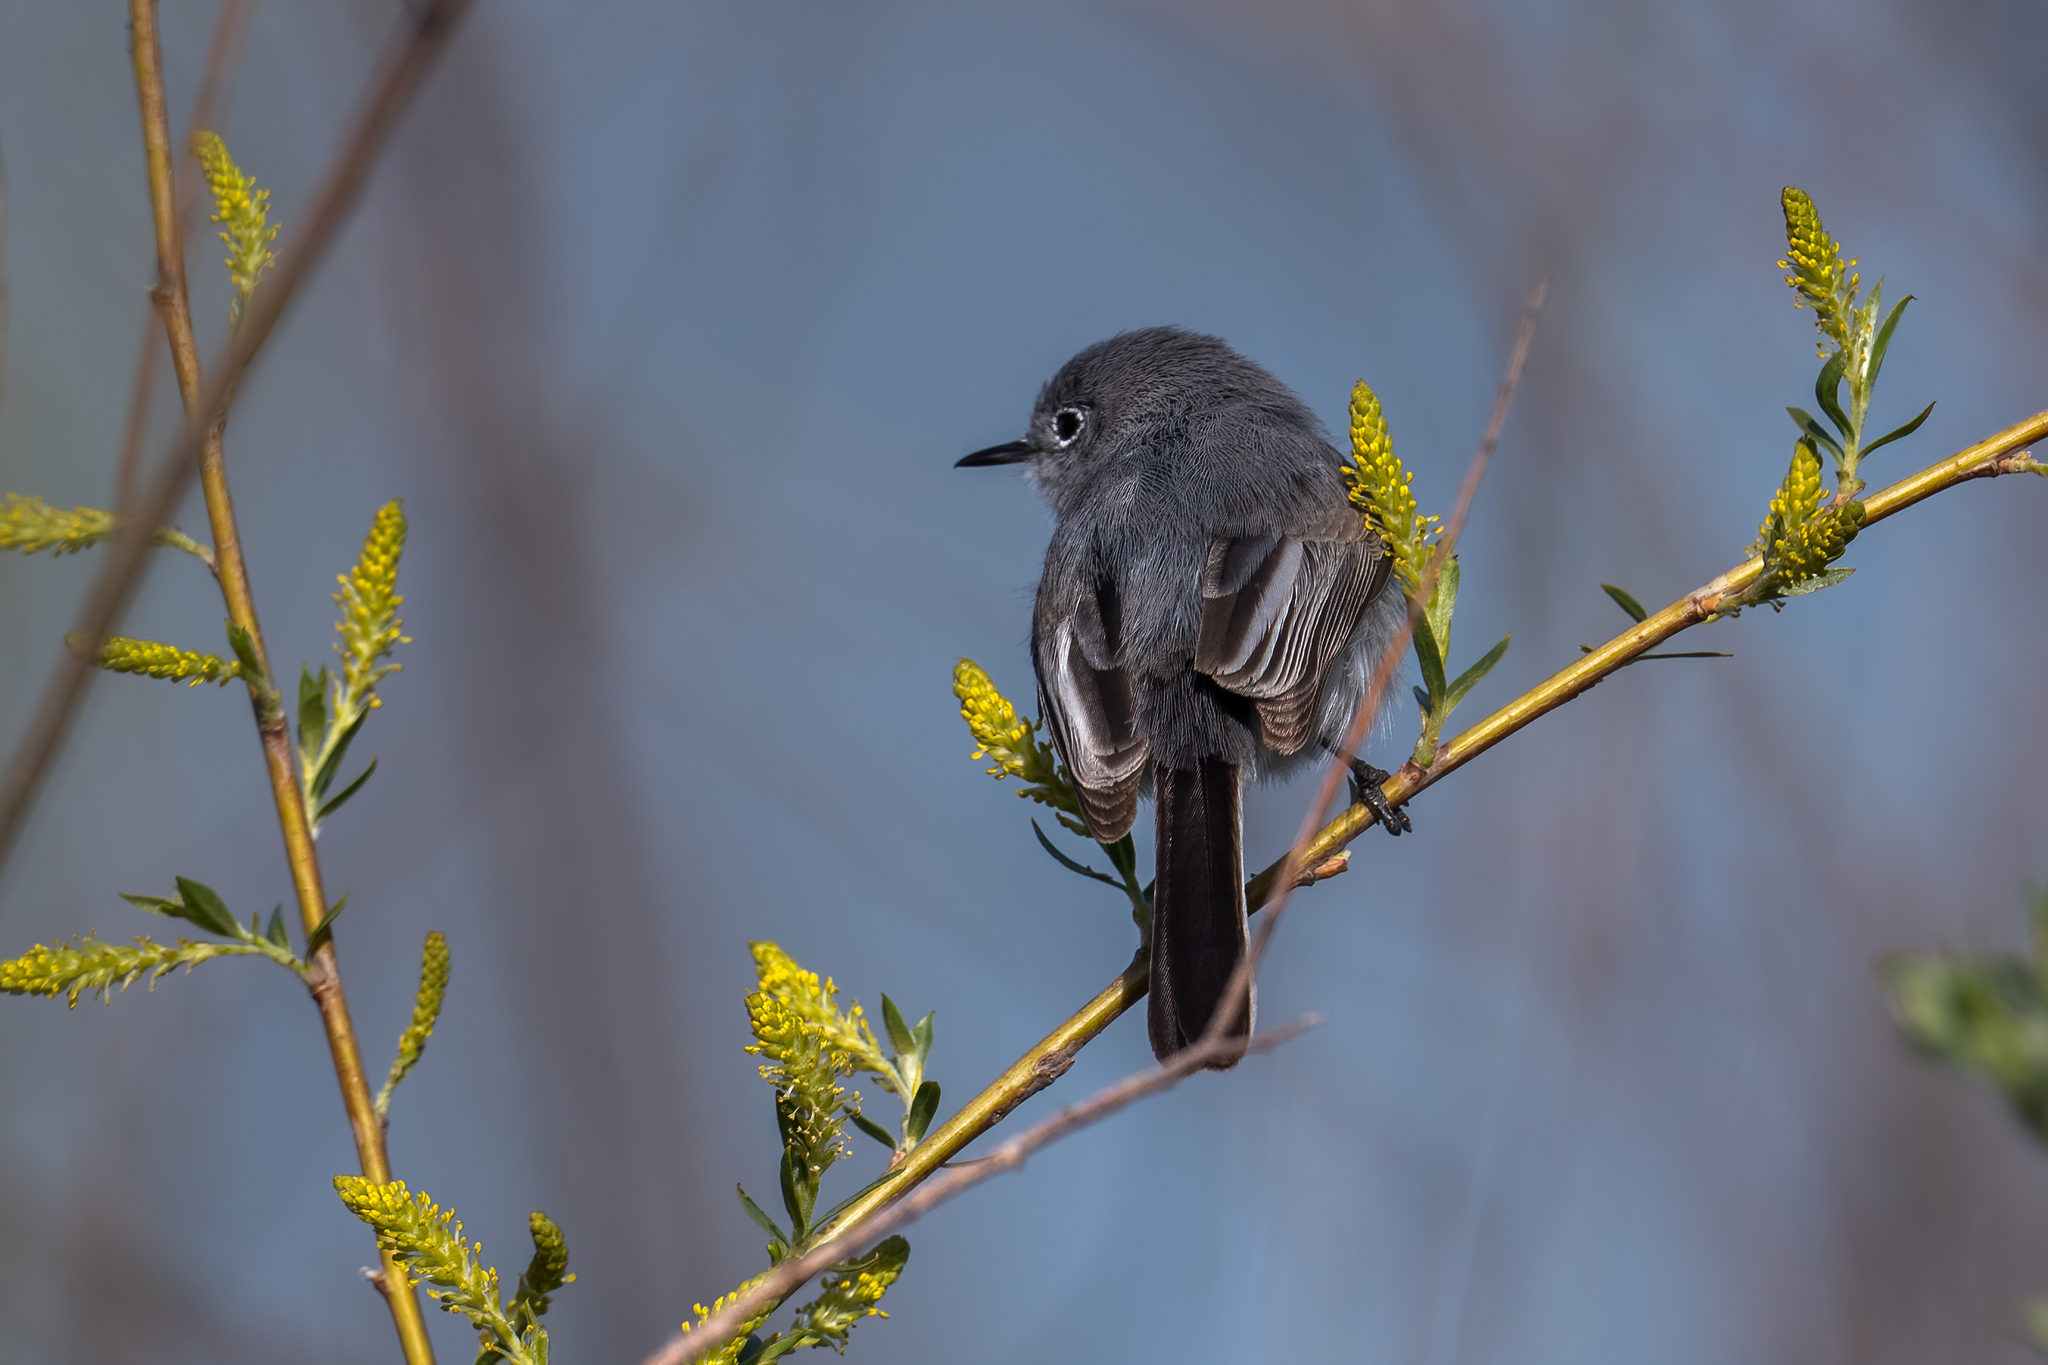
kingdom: Animalia
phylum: Chordata
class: Aves
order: Passeriformes
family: Polioptilidae
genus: Polioptila
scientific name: Polioptila caerulea
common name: Blue-gray gnatcatcher
